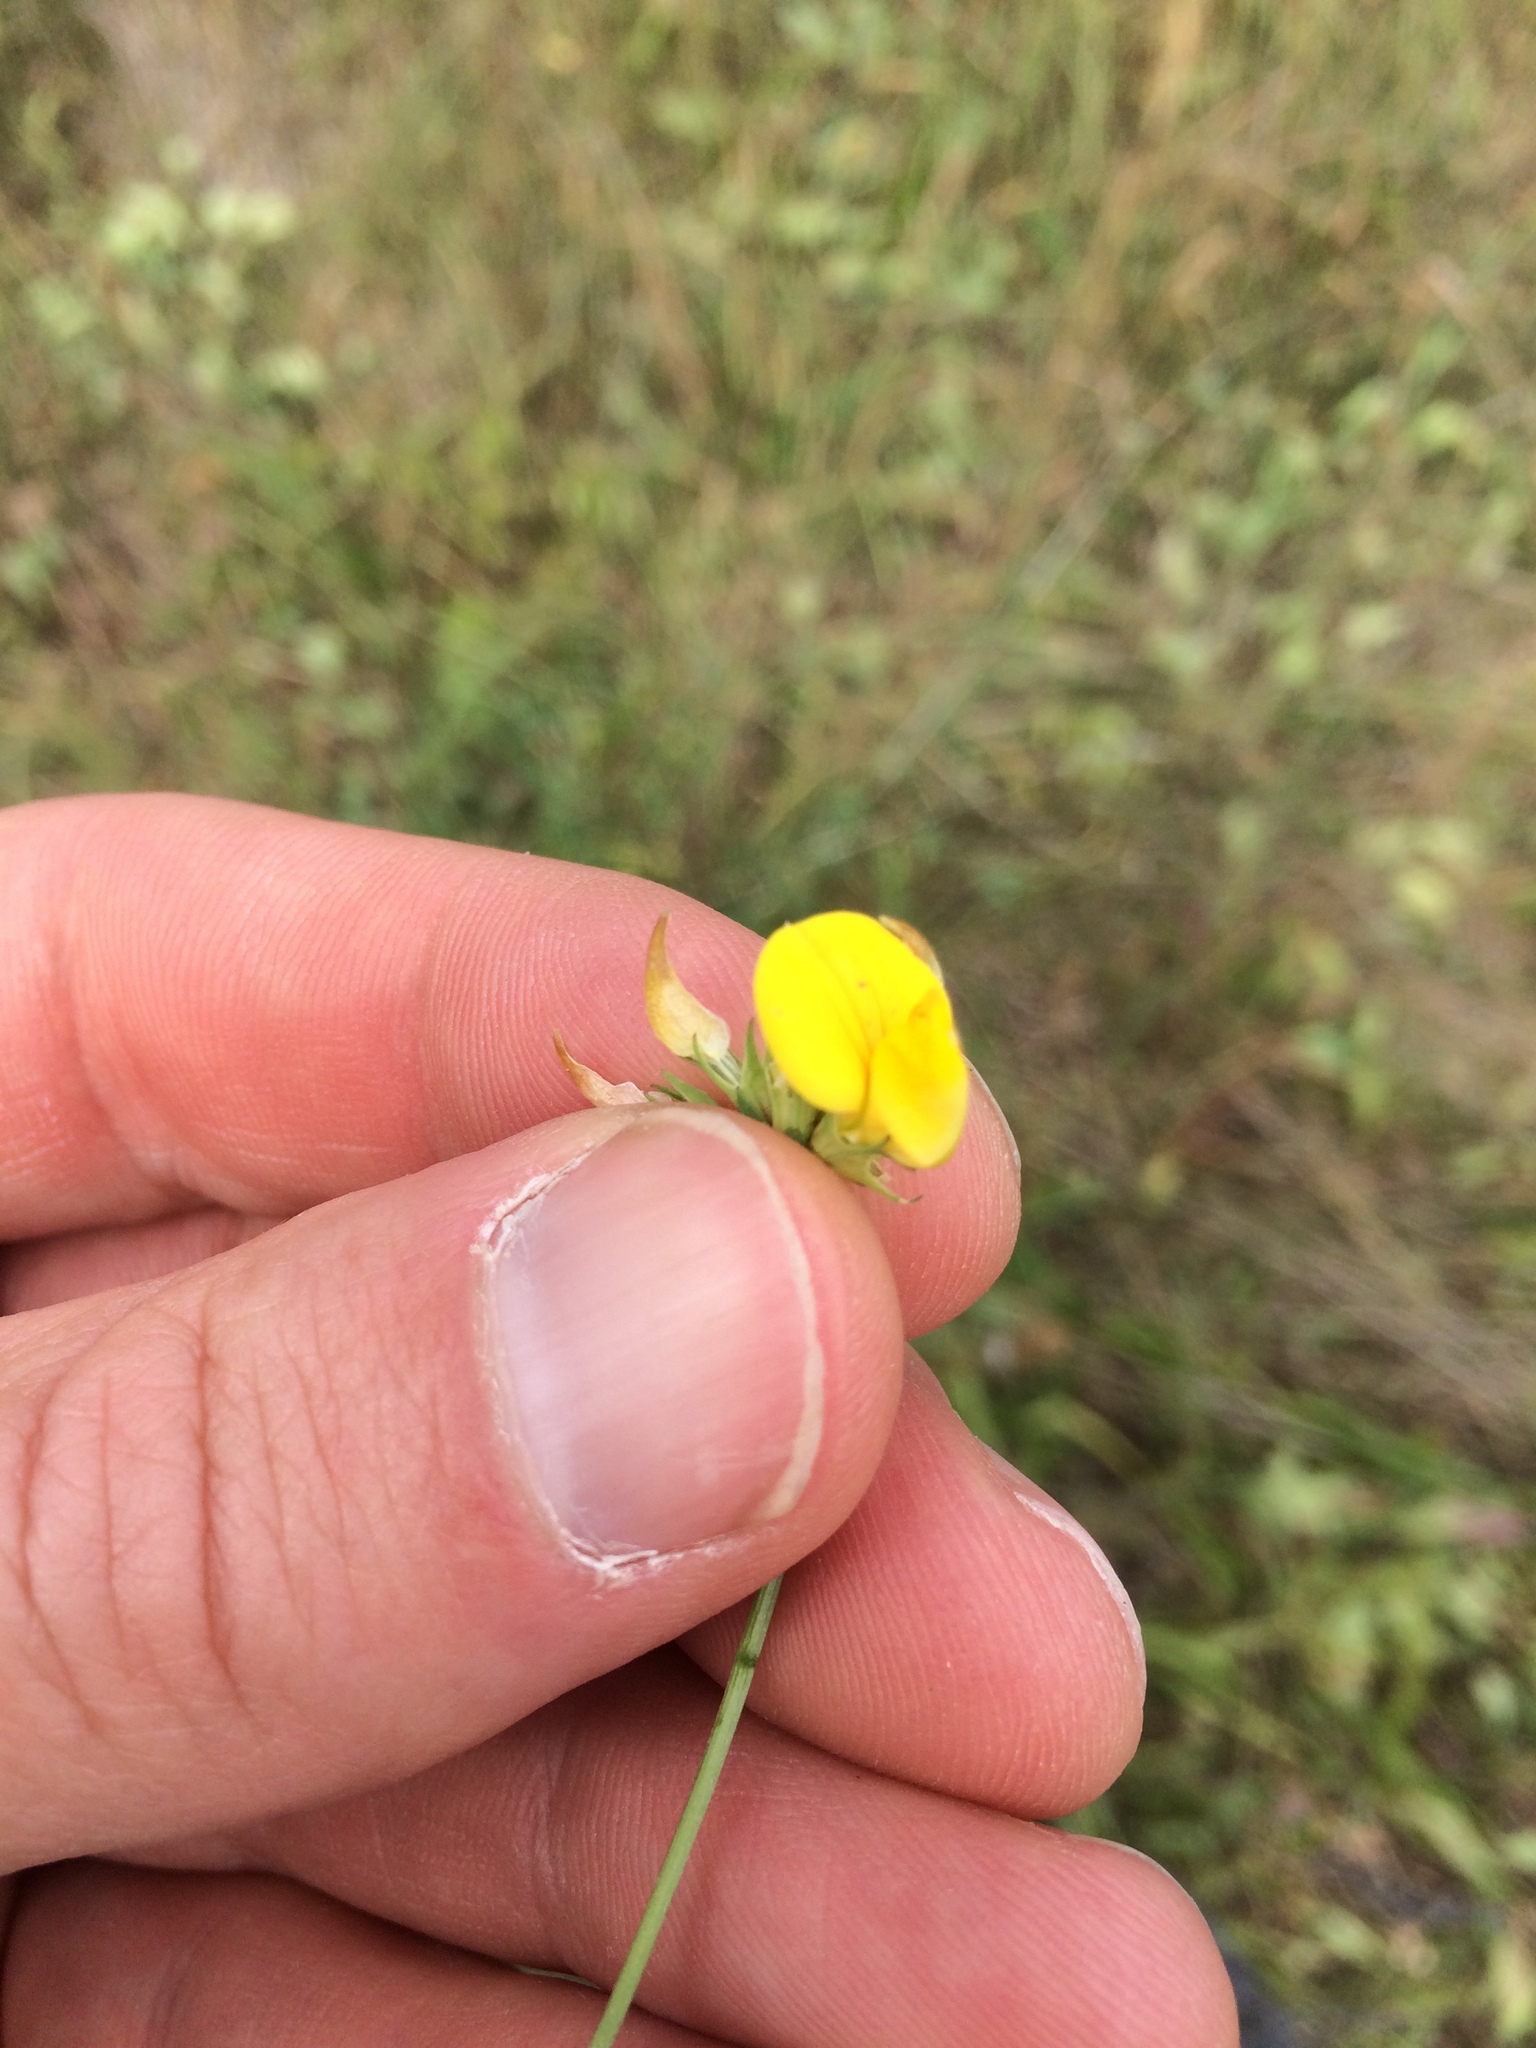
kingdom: Plantae
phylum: Tracheophyta
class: Magnoliopsida
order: Fabales
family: Fabaceae
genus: Lotus
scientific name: Lotus corniculatus
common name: Common bird's-foot-trefoil
